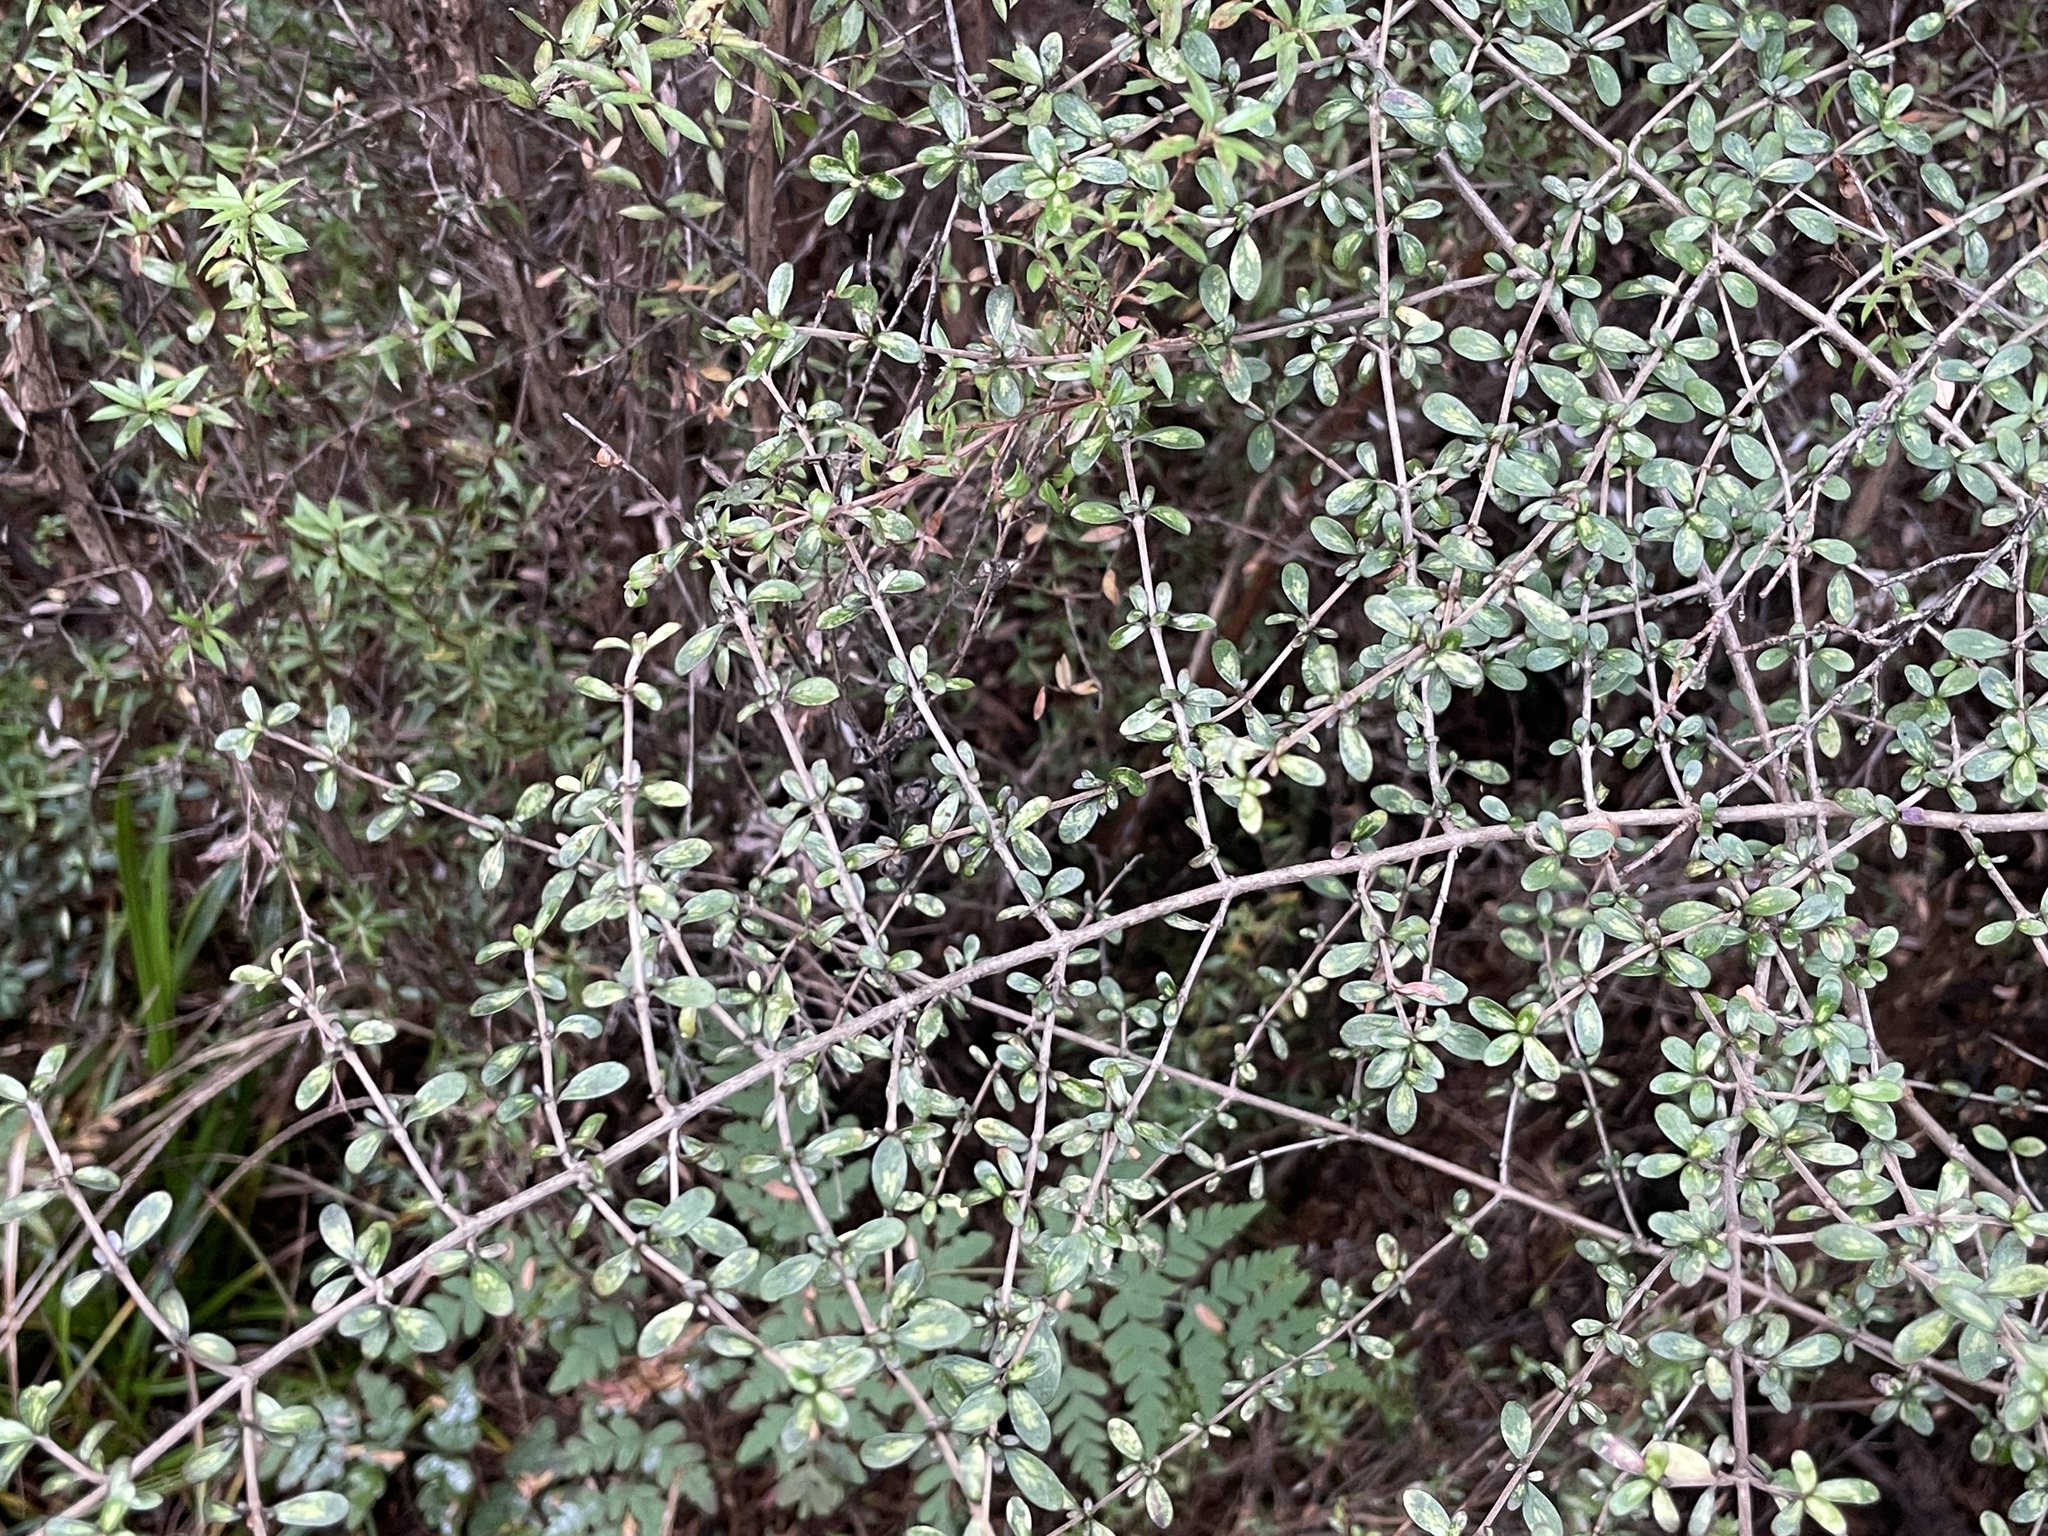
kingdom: Plantae
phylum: Tracheophyta
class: Magnoliopsida
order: Gentianales
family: Rubiaceae
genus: Coprosma
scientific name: Coprosma dumosa
